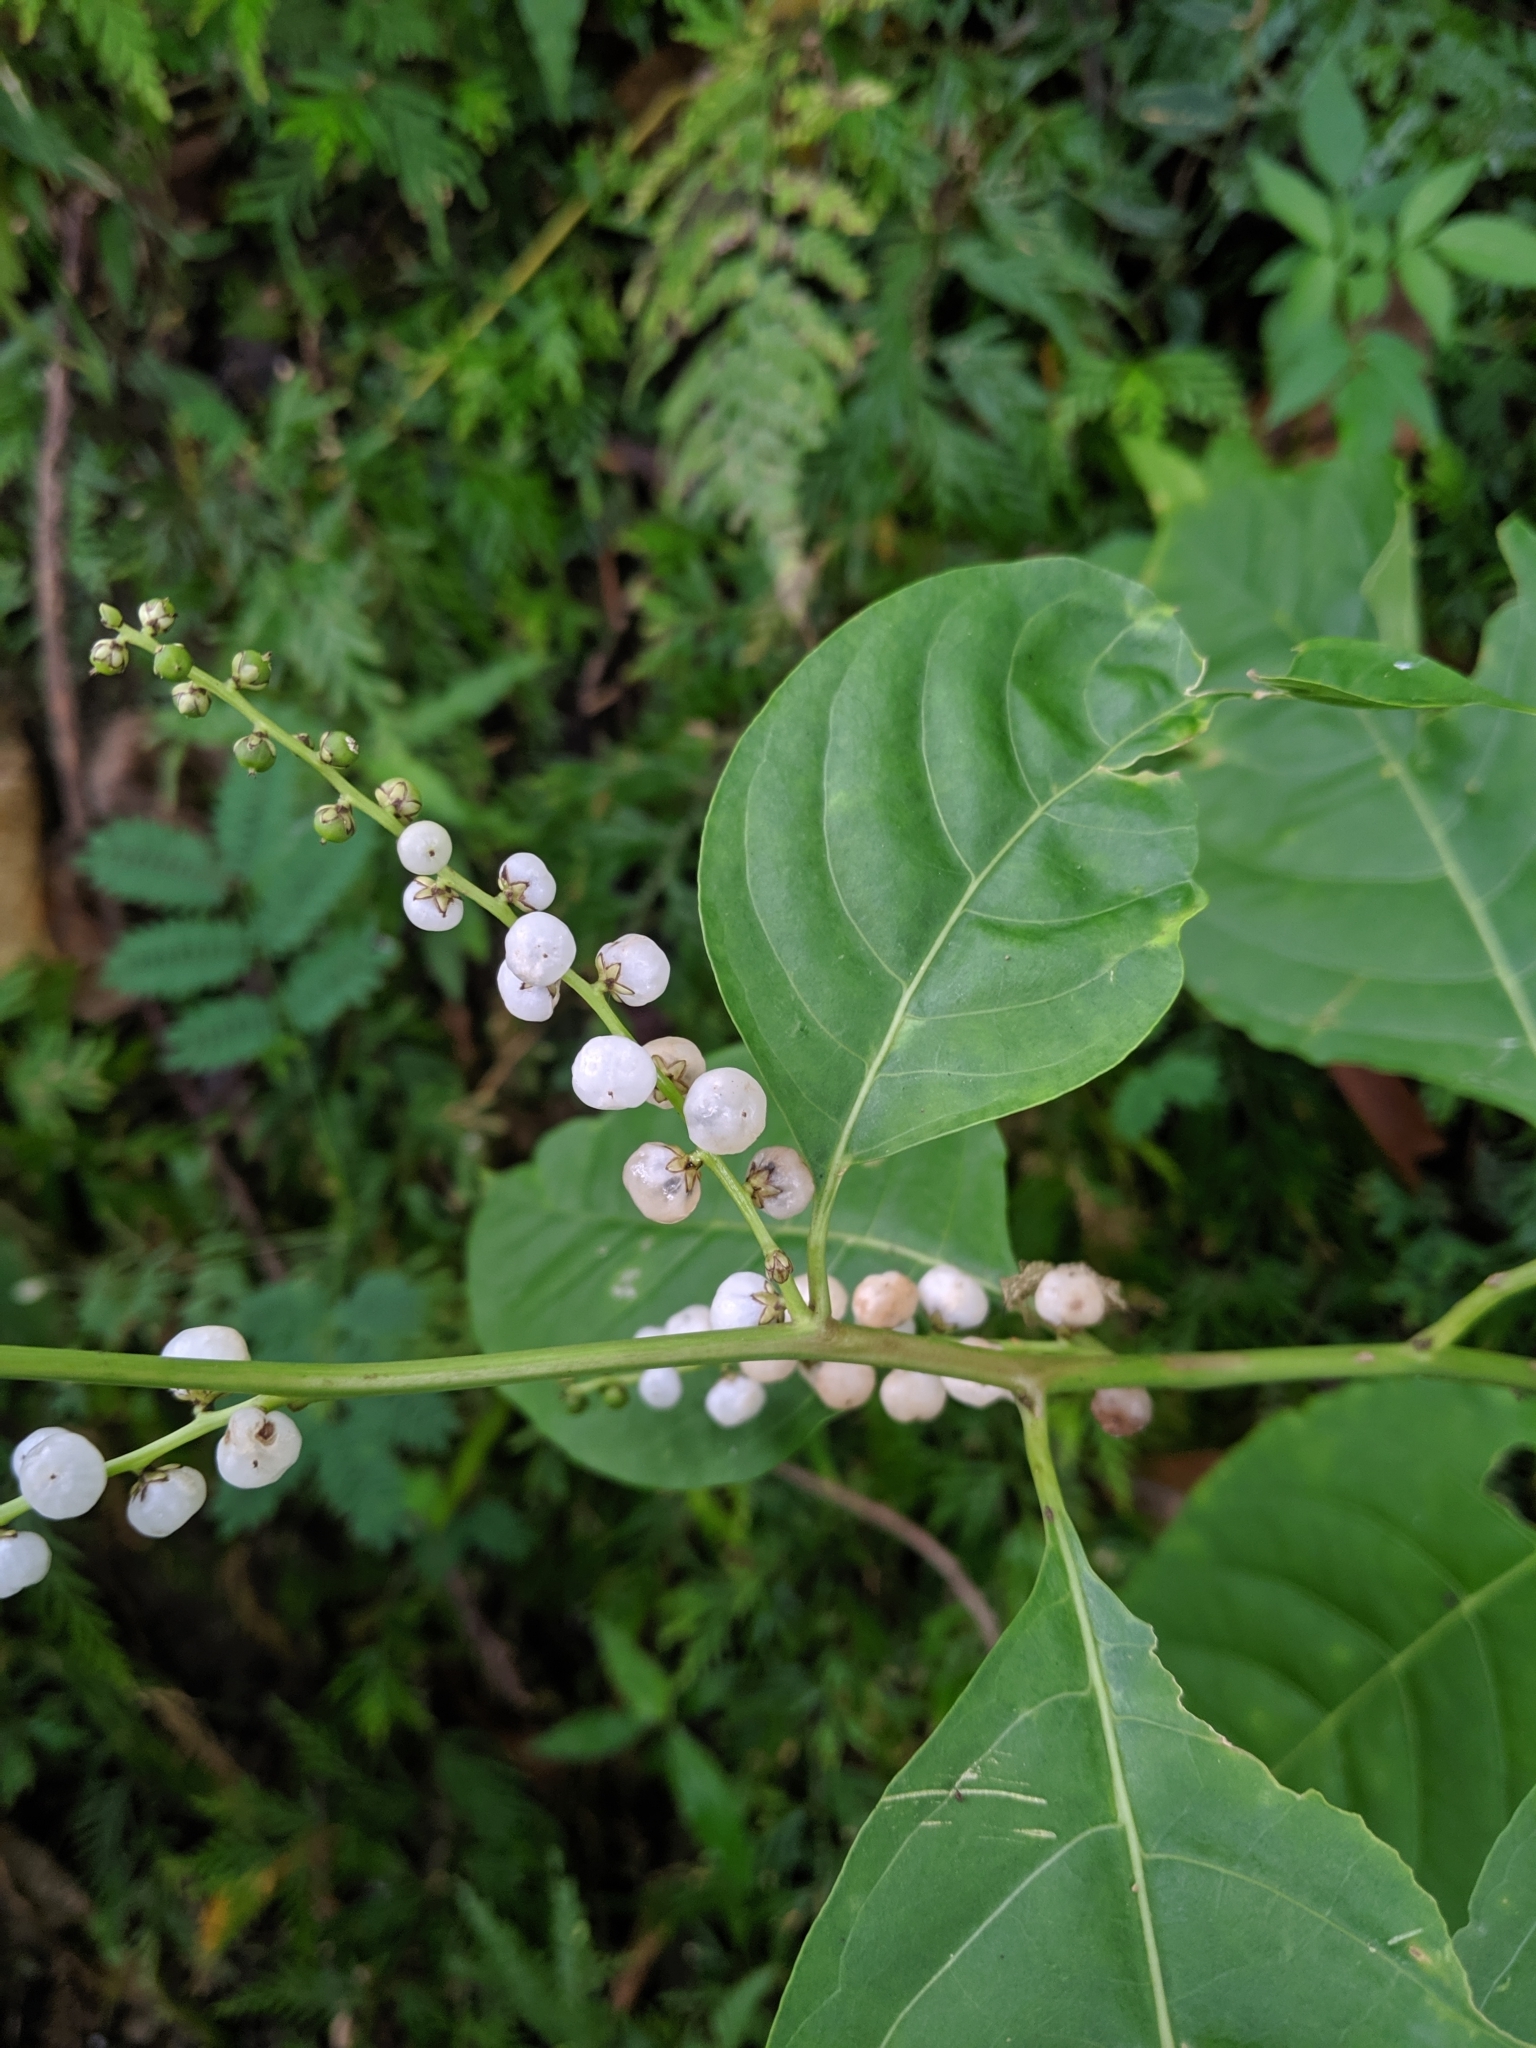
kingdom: Plantae
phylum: Tracheophyta
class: Magnoliopsida
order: Caryophyllales
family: Amaranthaceae
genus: Deeringia
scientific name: Deeringia polysperma
